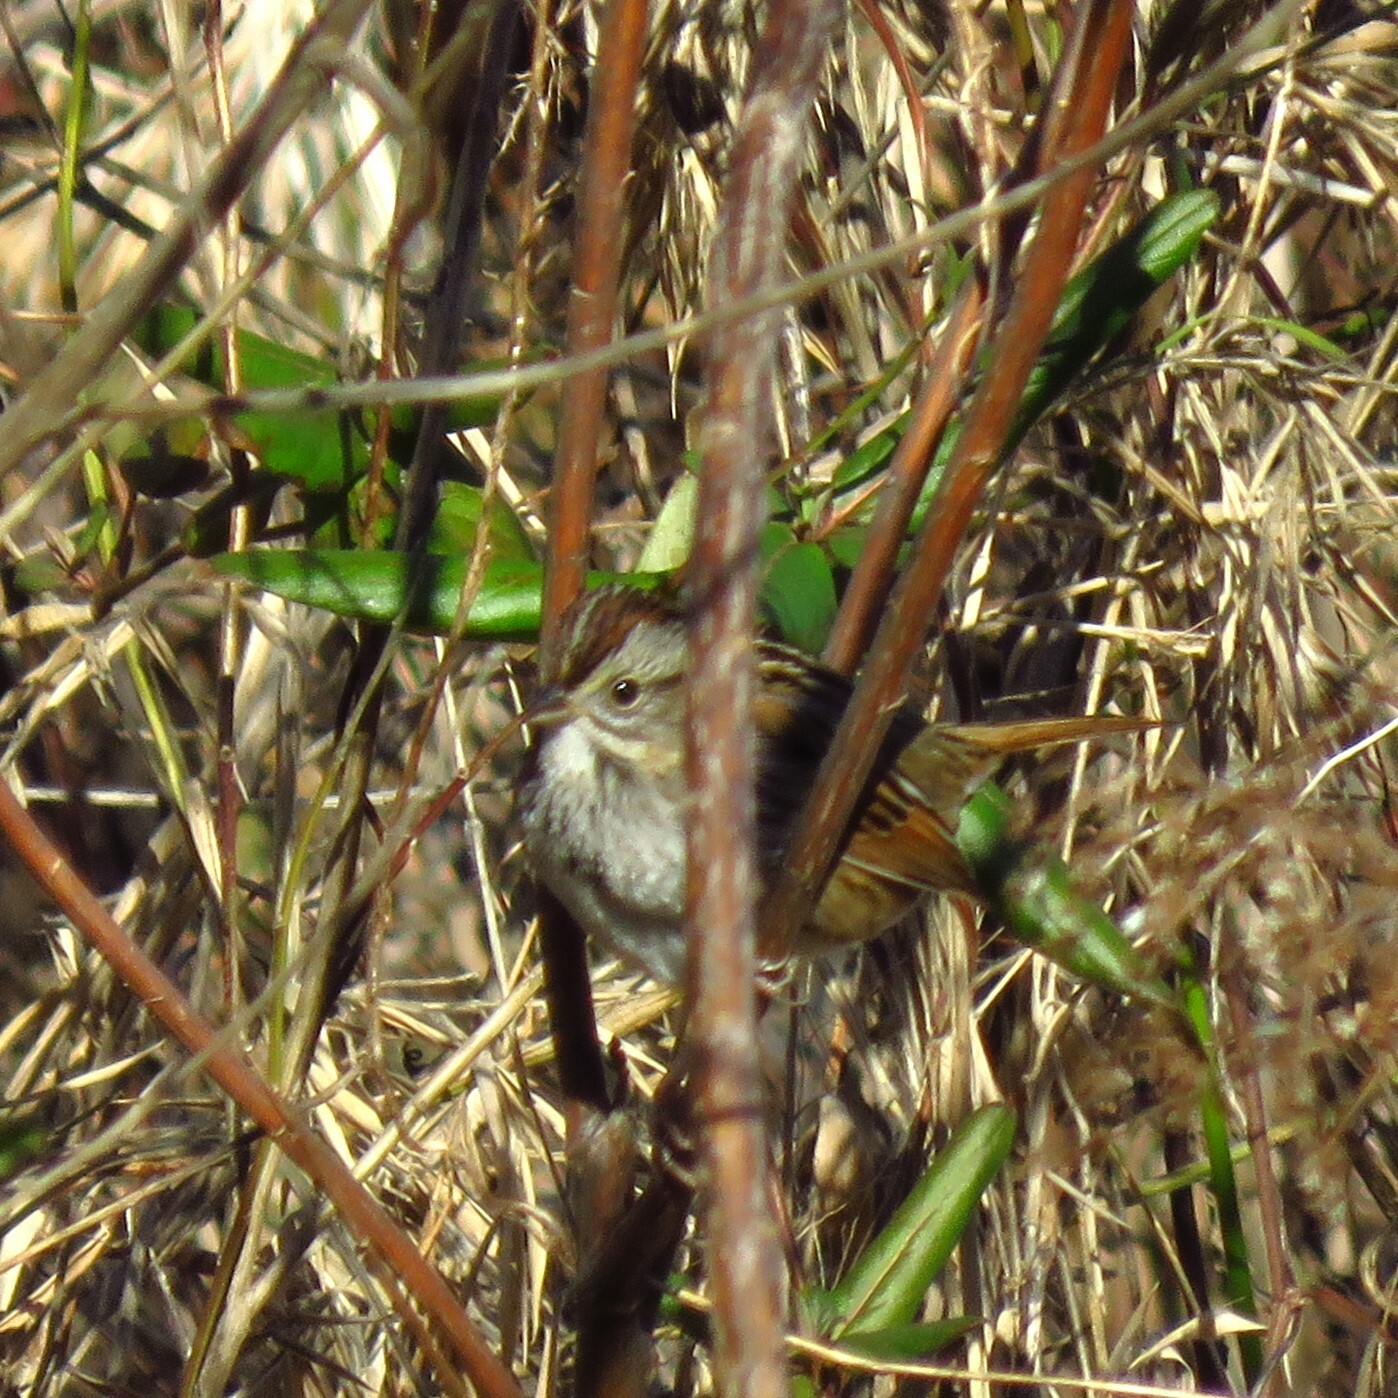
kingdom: Animalia
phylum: Chordata
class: Aves
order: Passeriformes
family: Passerellidae
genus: Melospiza
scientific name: Melospiza georgiana
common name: Swamp sparrow
